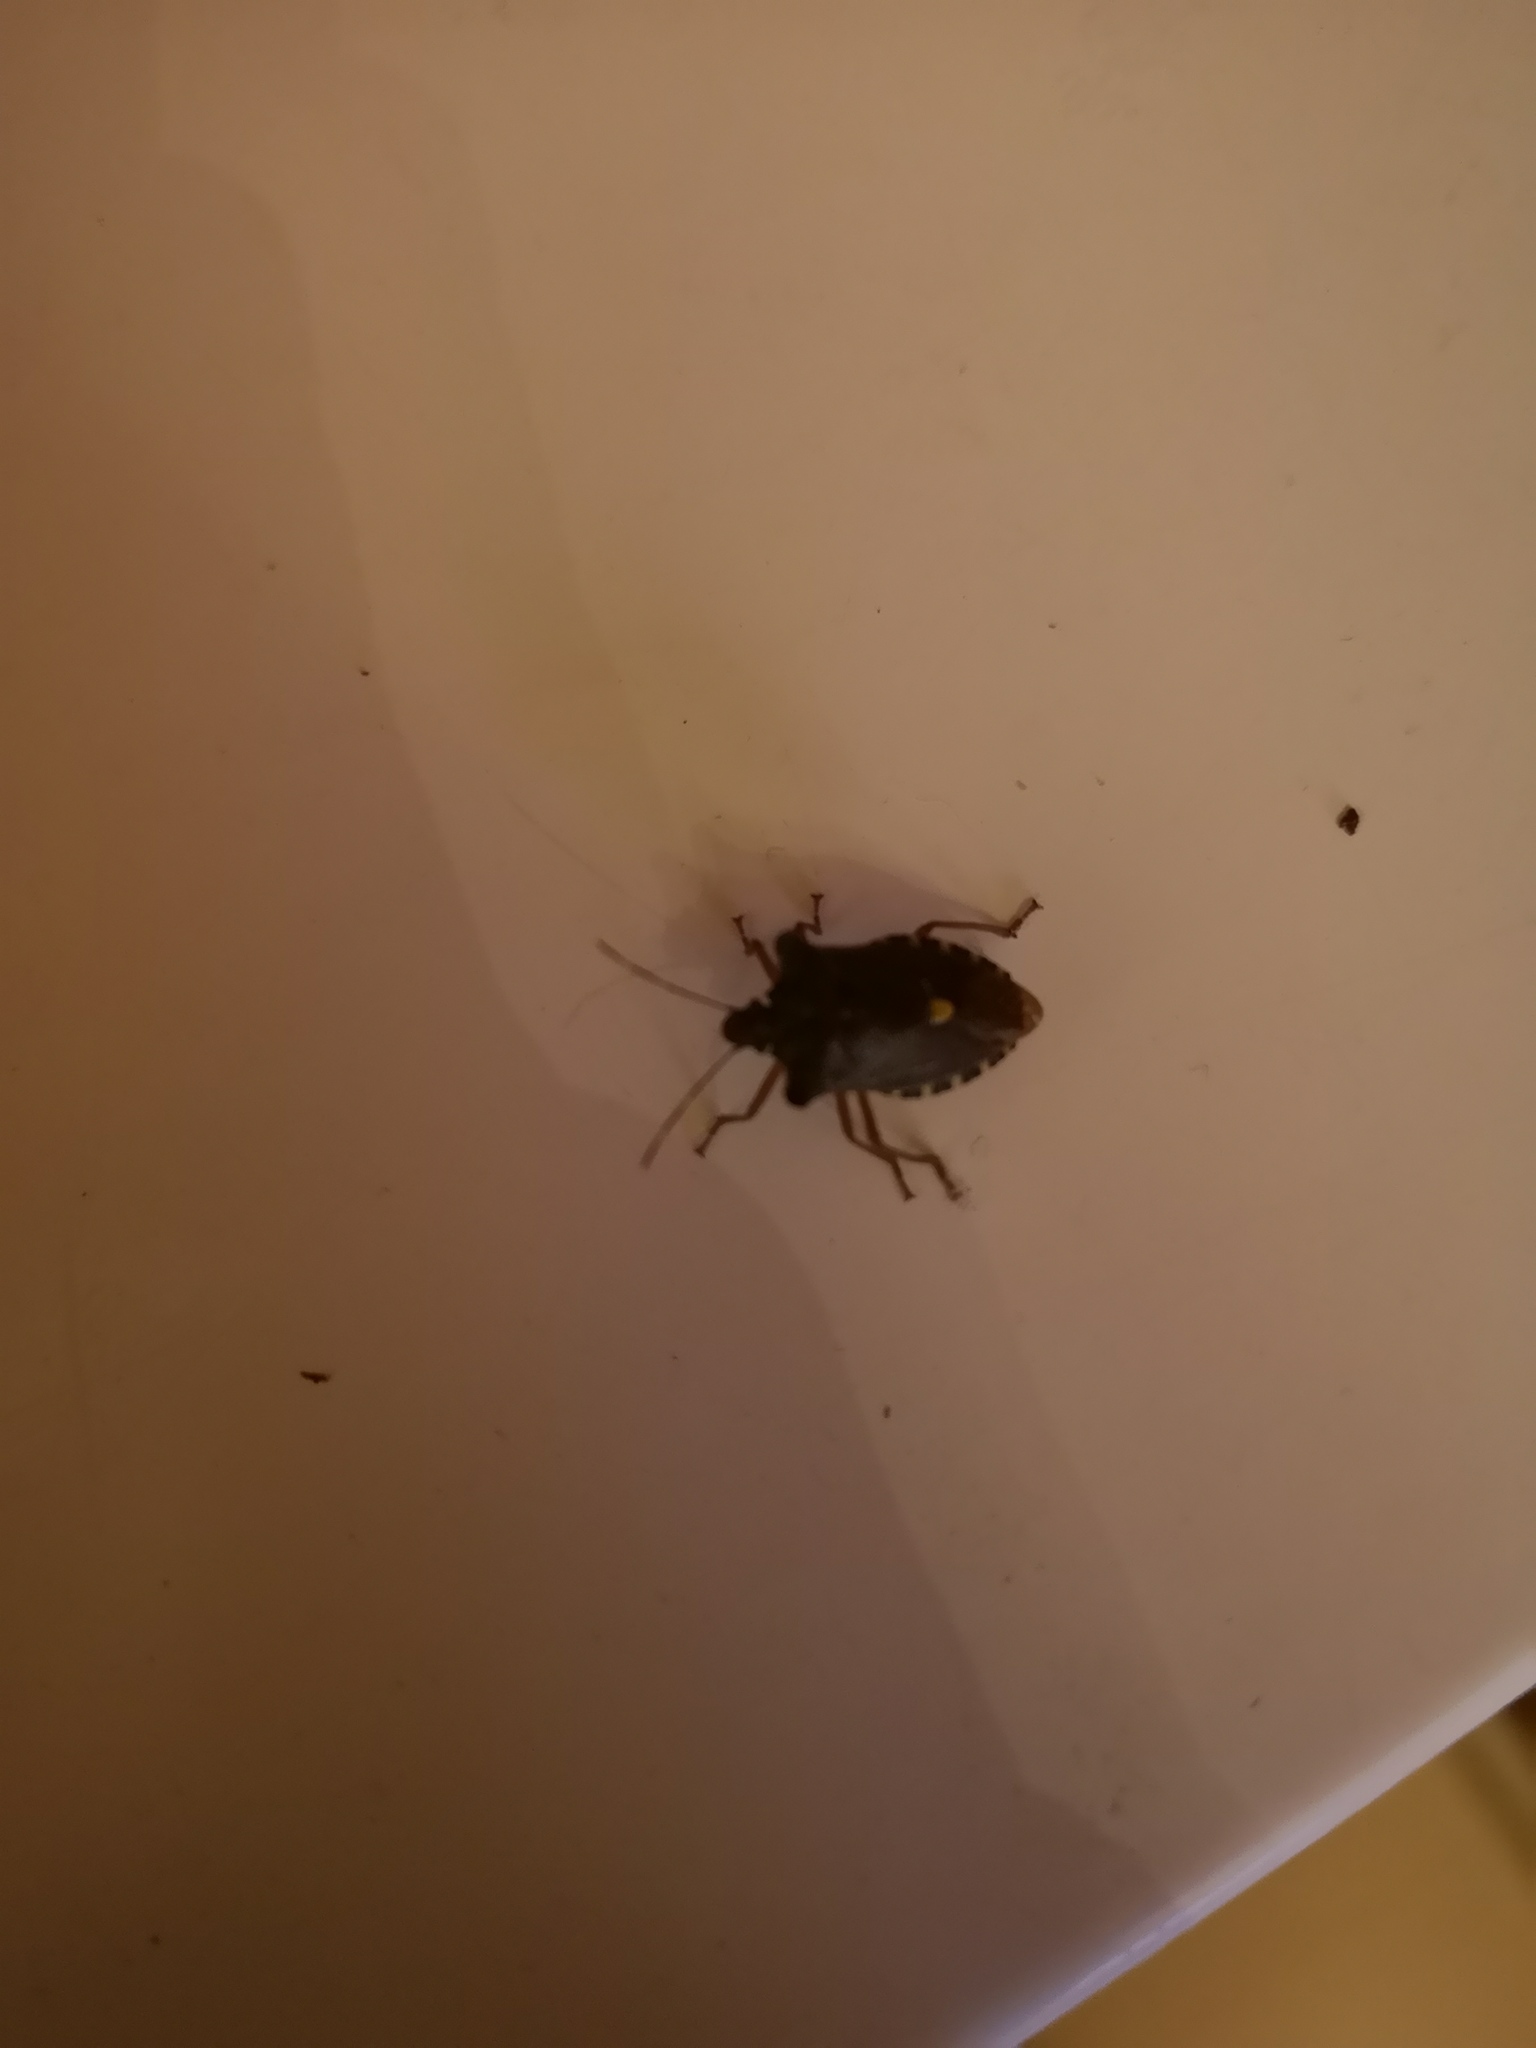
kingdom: Animalia
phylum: Arthropoda
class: Insecta
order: Hemiptera
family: Pentatomidae
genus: Pentatoma
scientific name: Pentatoma rufipes
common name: Forest bug
